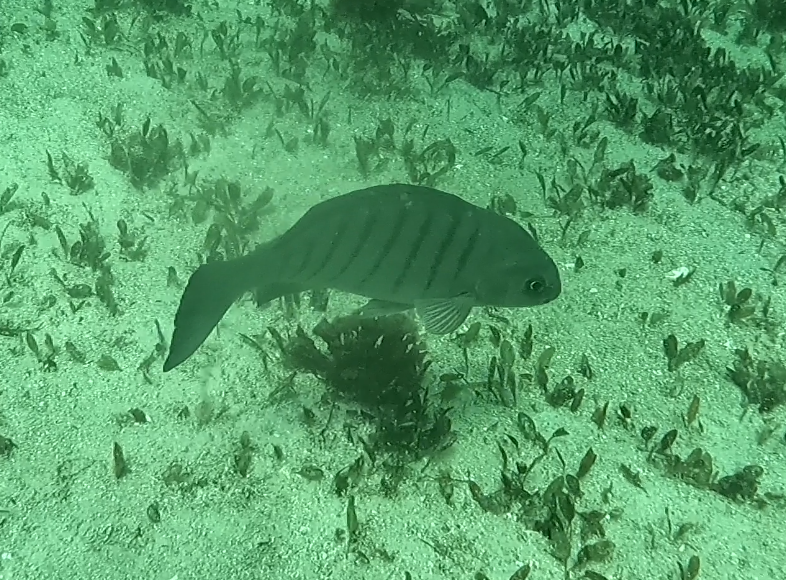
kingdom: Animalia
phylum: Chordata
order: Perciformes
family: Kyphosidae
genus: Girella
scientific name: Girella tricuspidata
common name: Parore
